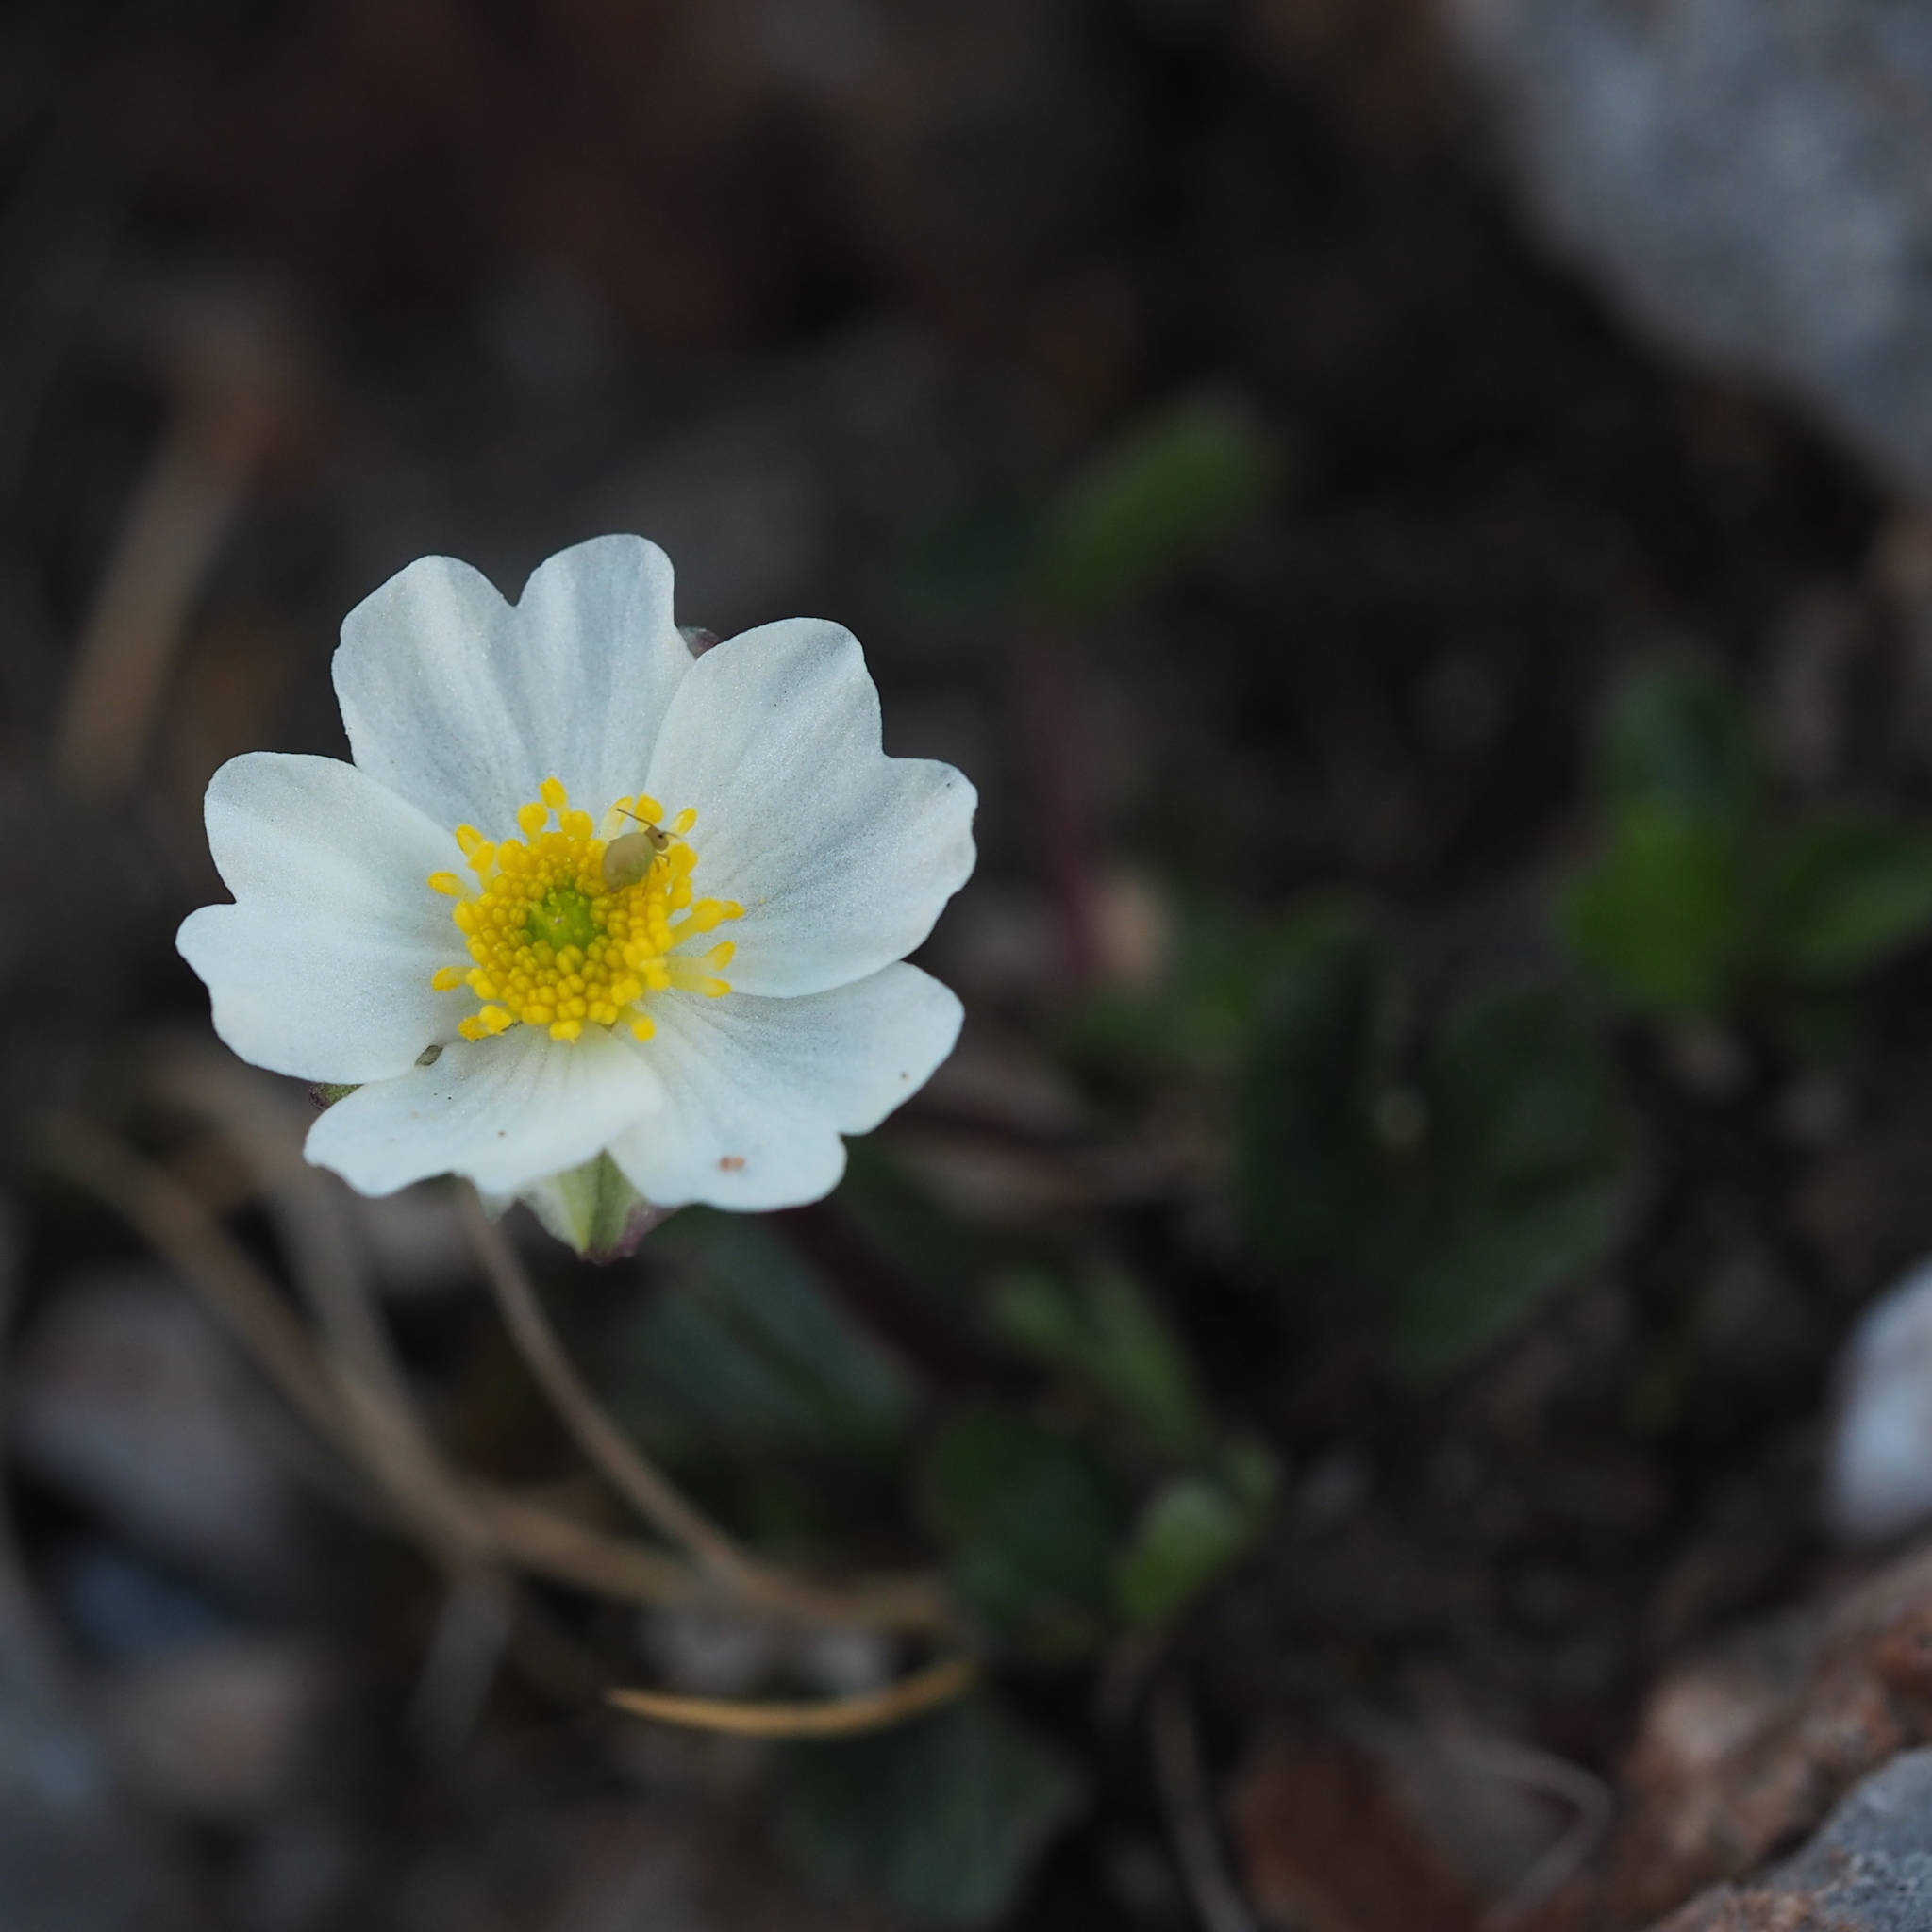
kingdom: Plantae
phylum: Tracheophyta
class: Magnoliopsida
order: Ranunculales
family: Ranunculaceae
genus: Ranunculus
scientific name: Ranunculus alpestris
